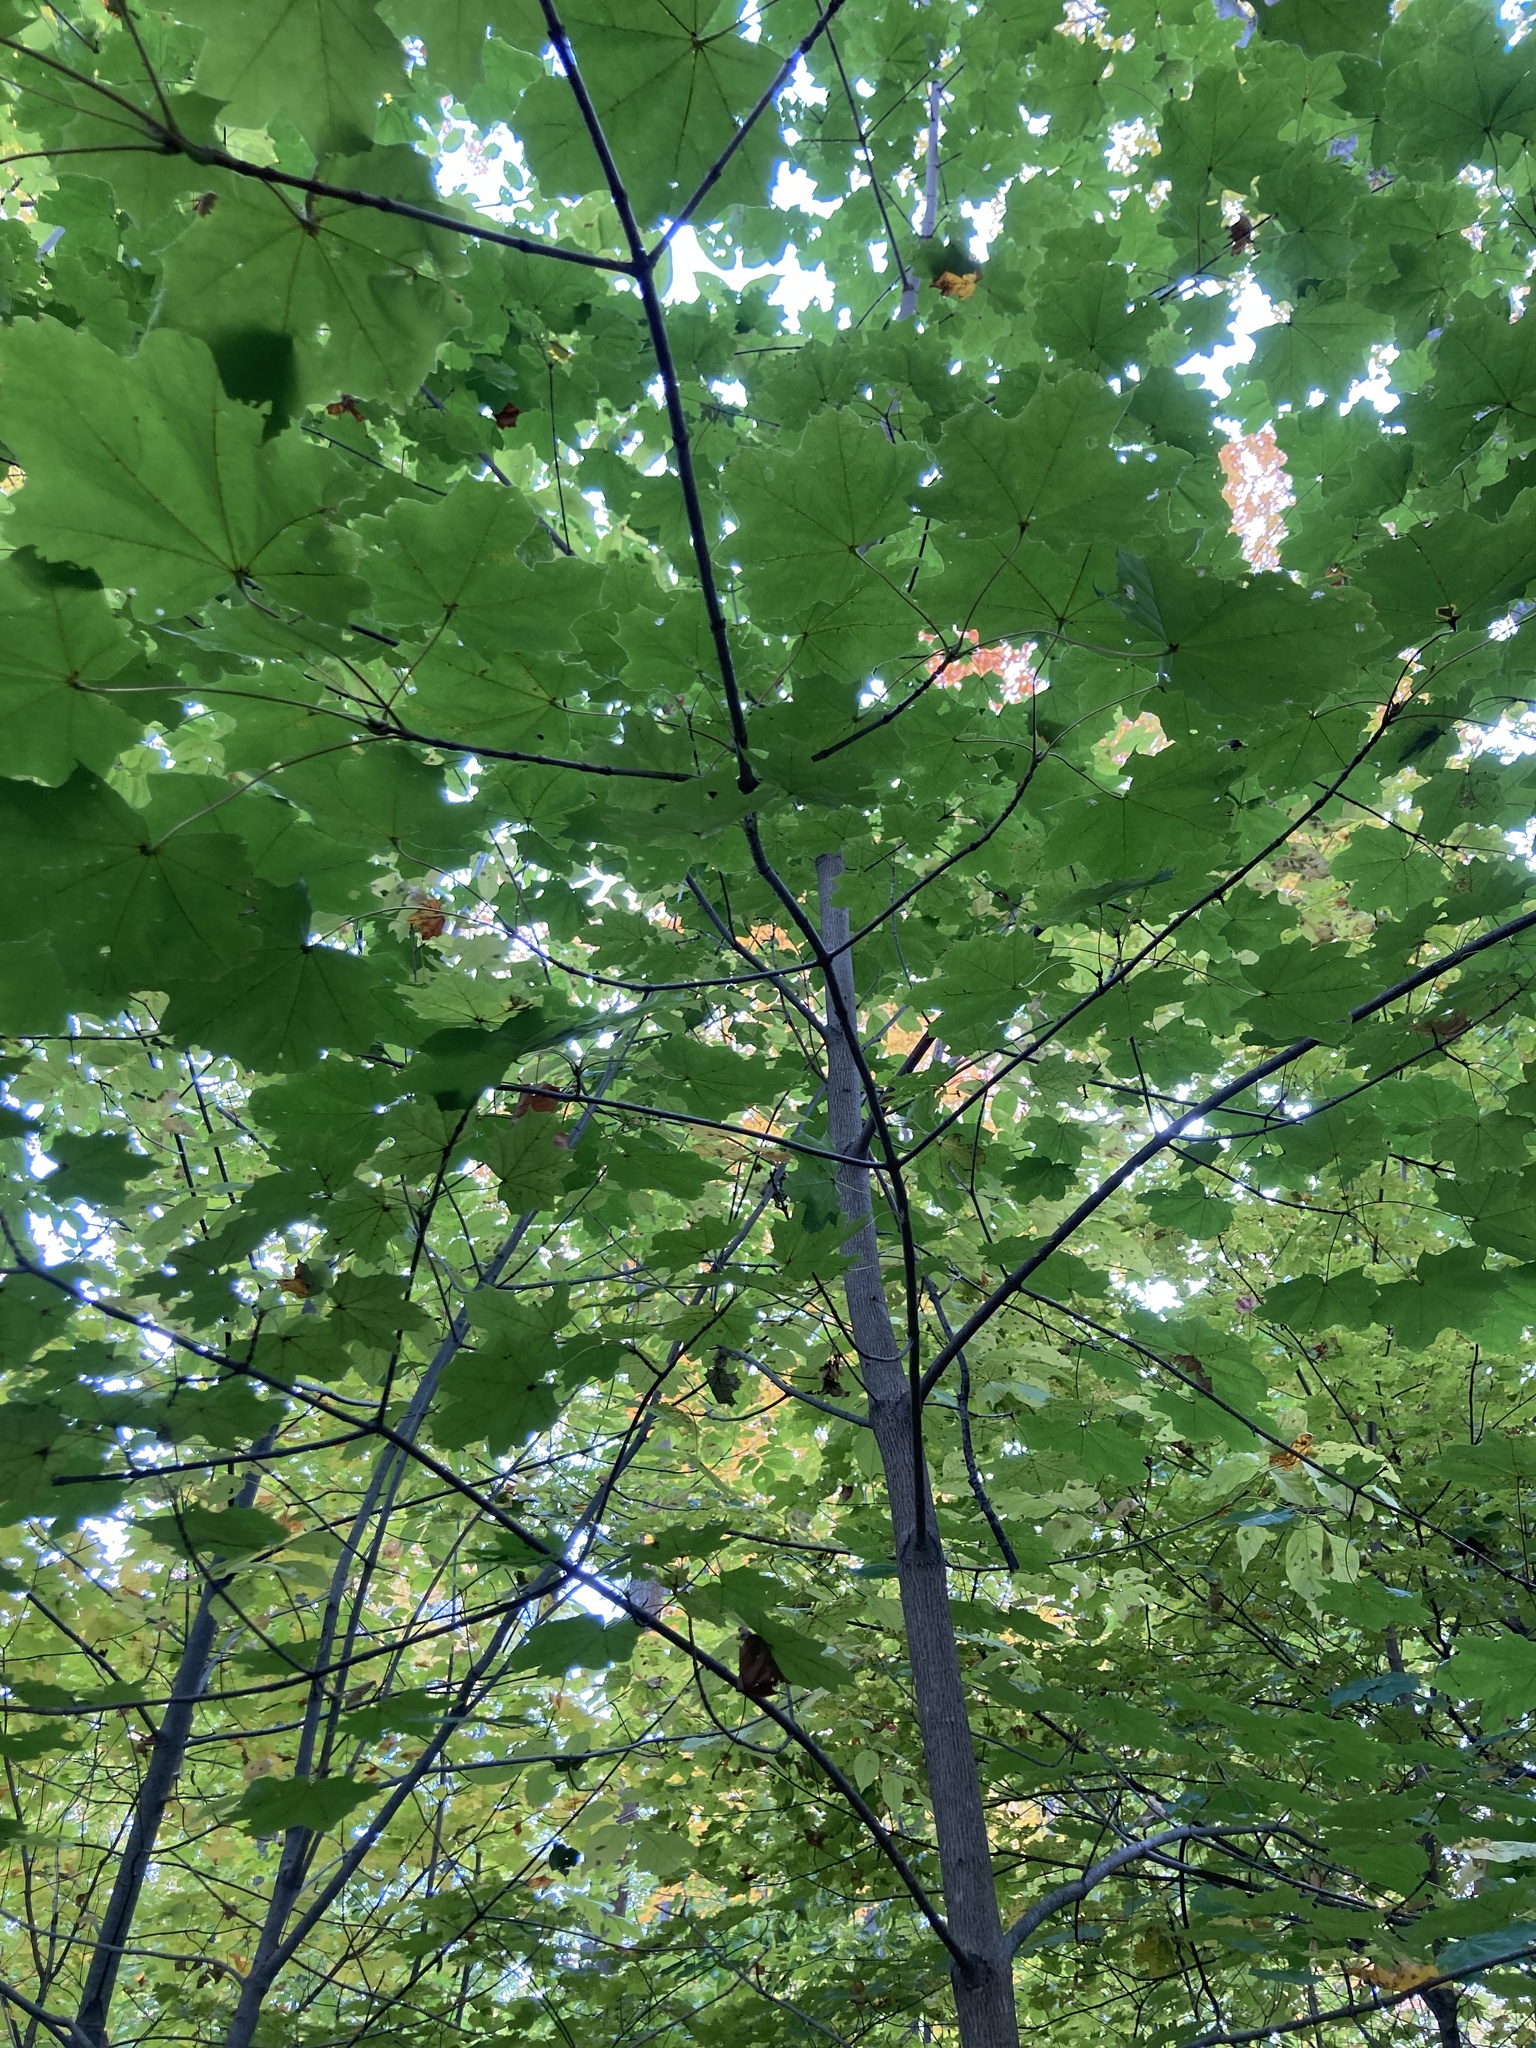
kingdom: Plantae
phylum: Tracheophyta
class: Magnoliopsida
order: Sapindales
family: Sapindaceae
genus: Acer
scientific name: Acer platanoides
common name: Norway maple
